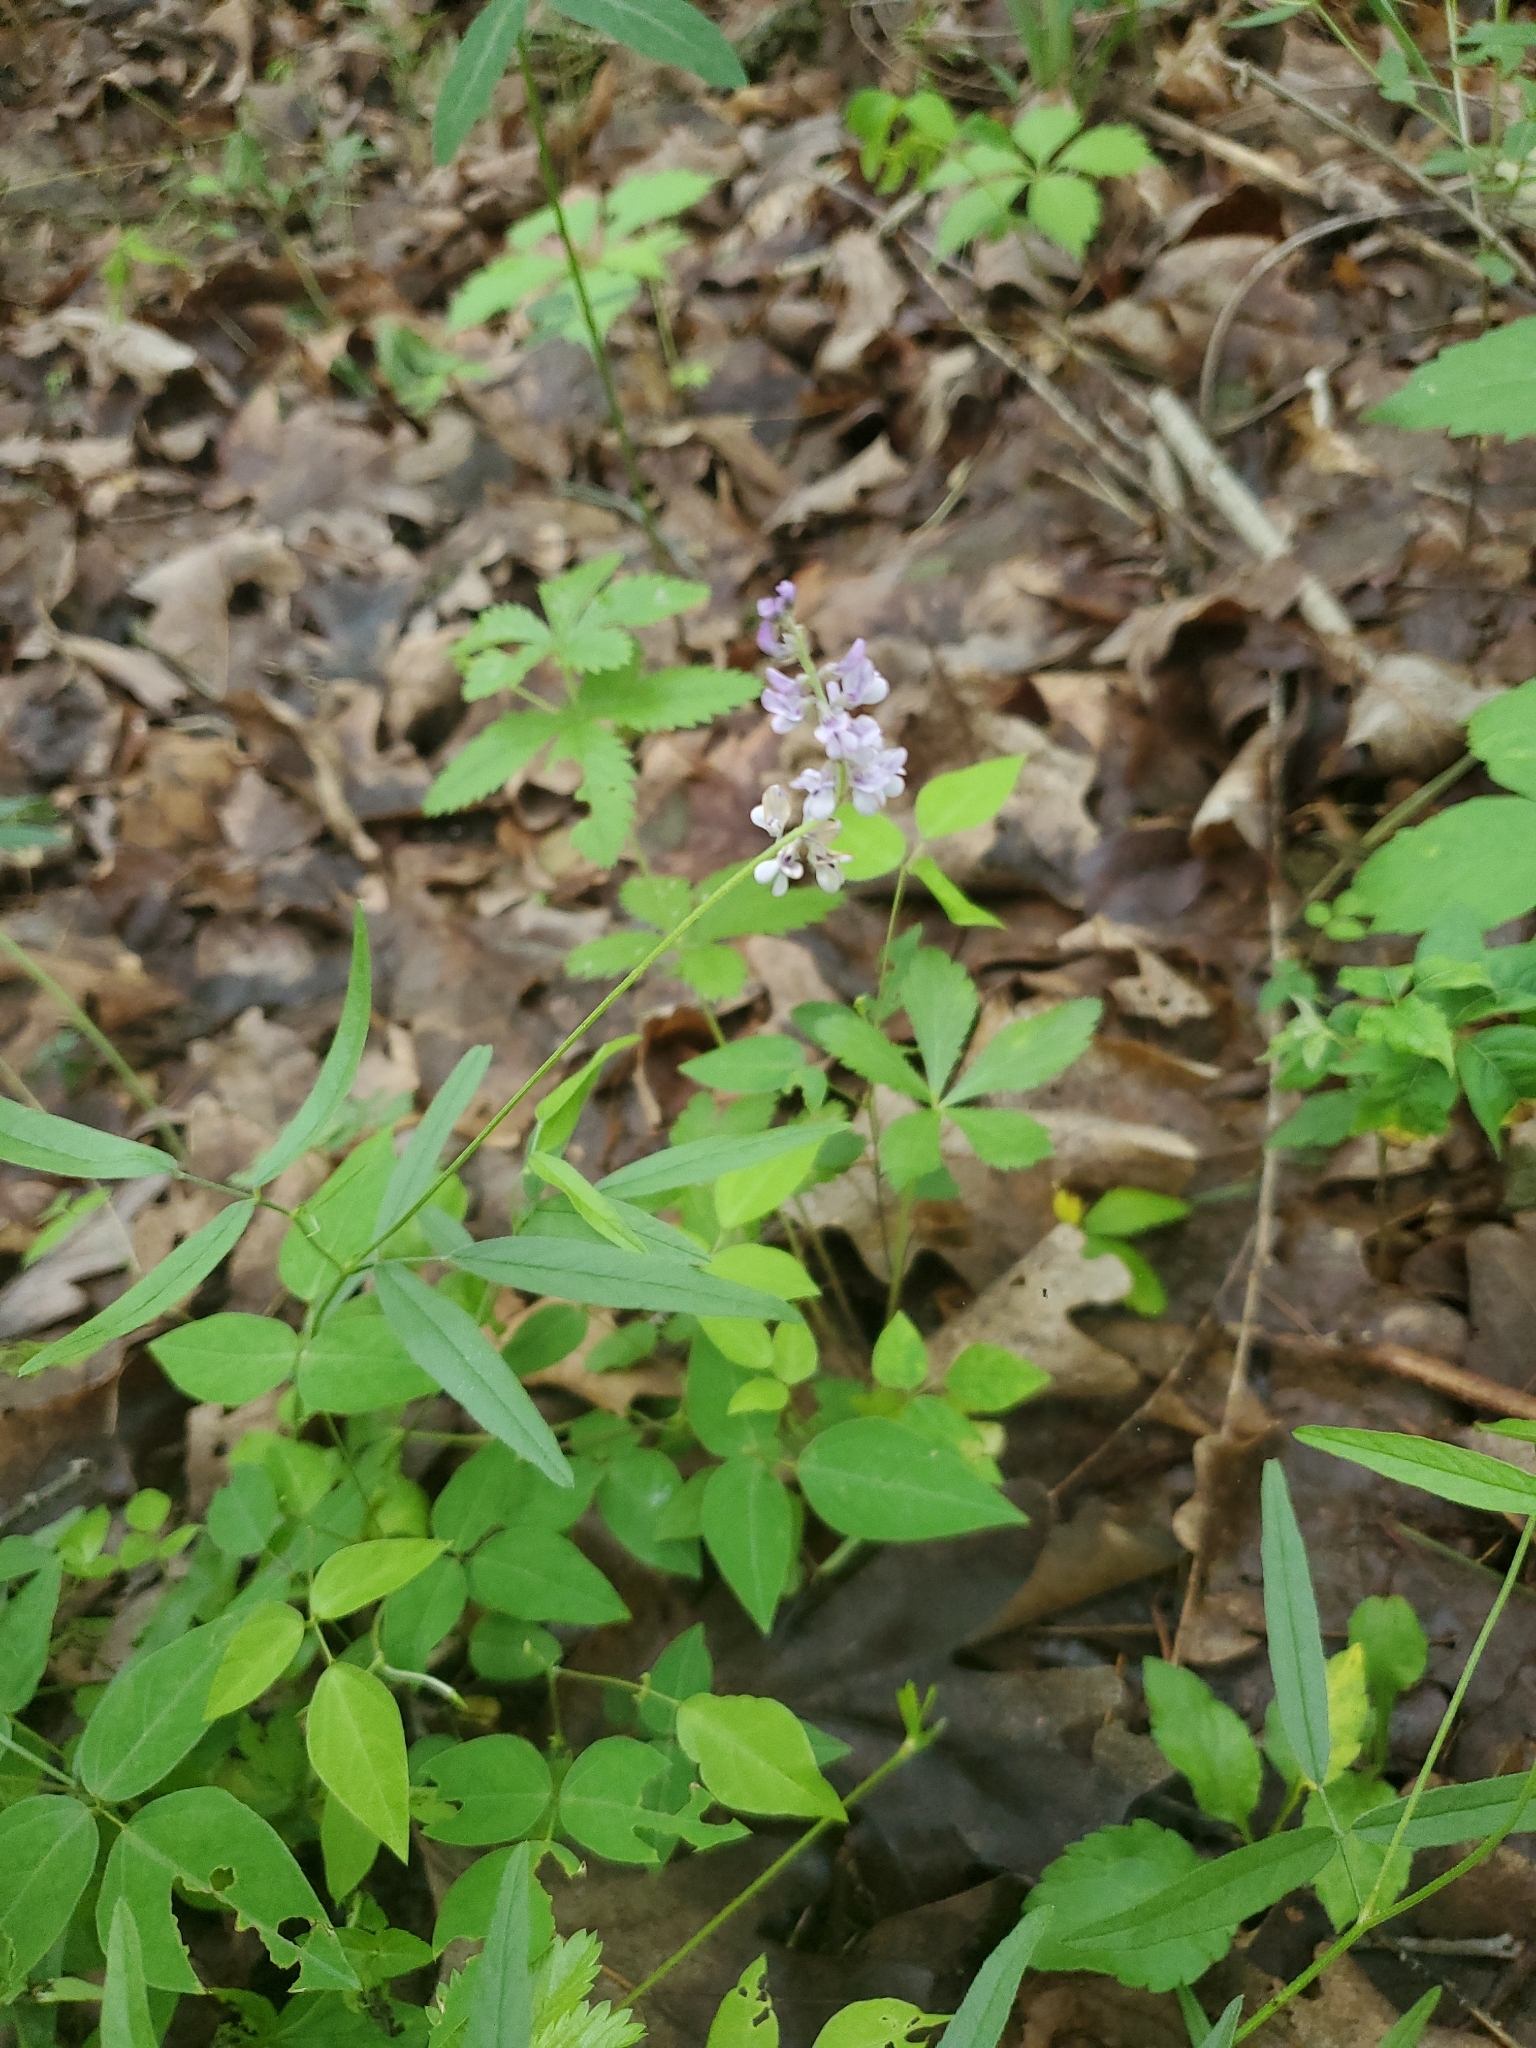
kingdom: Plantae
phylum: Tracheophyta
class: Magnoliopsida
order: Fabales
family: Fabaceae
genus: Orbexilum
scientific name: Orbexilum pedunculatum
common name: Sampson's snakeroot
